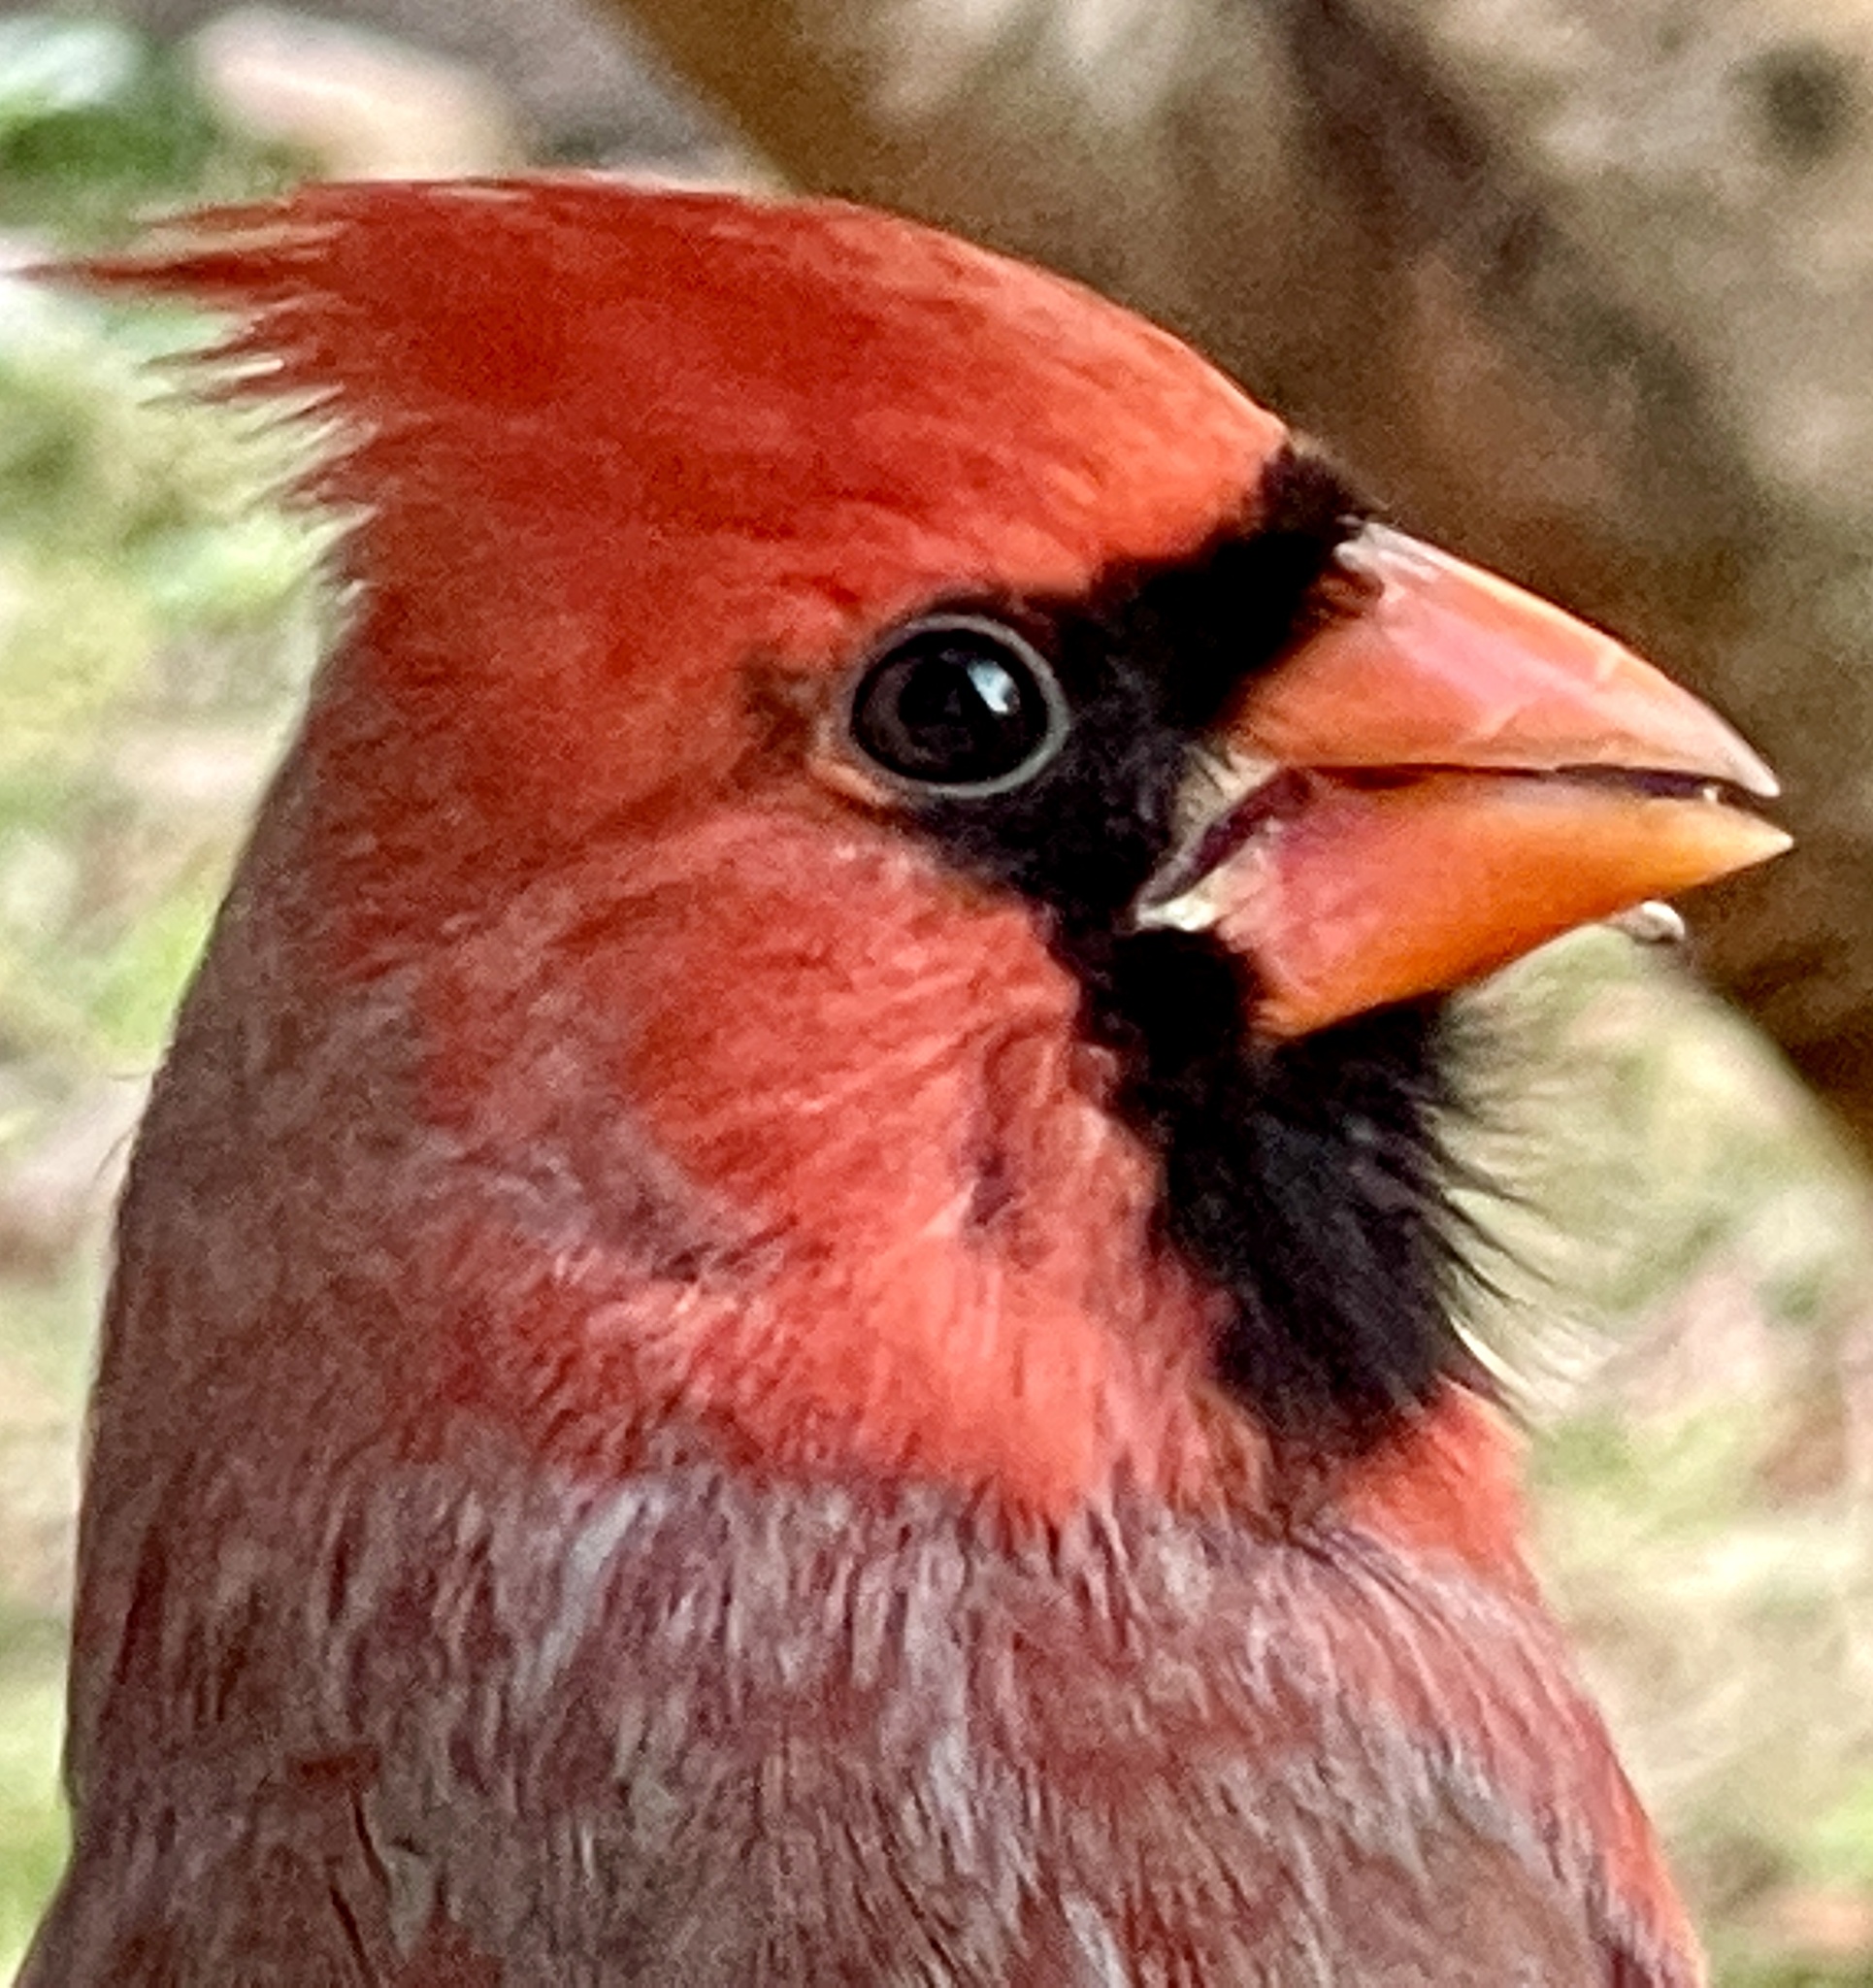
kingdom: Animalia
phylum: Chordata
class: Aves
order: Passeriformes
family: Cardinalidae
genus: Cardinalis
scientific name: Cardinalis cardinalis
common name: Northern cardinal
